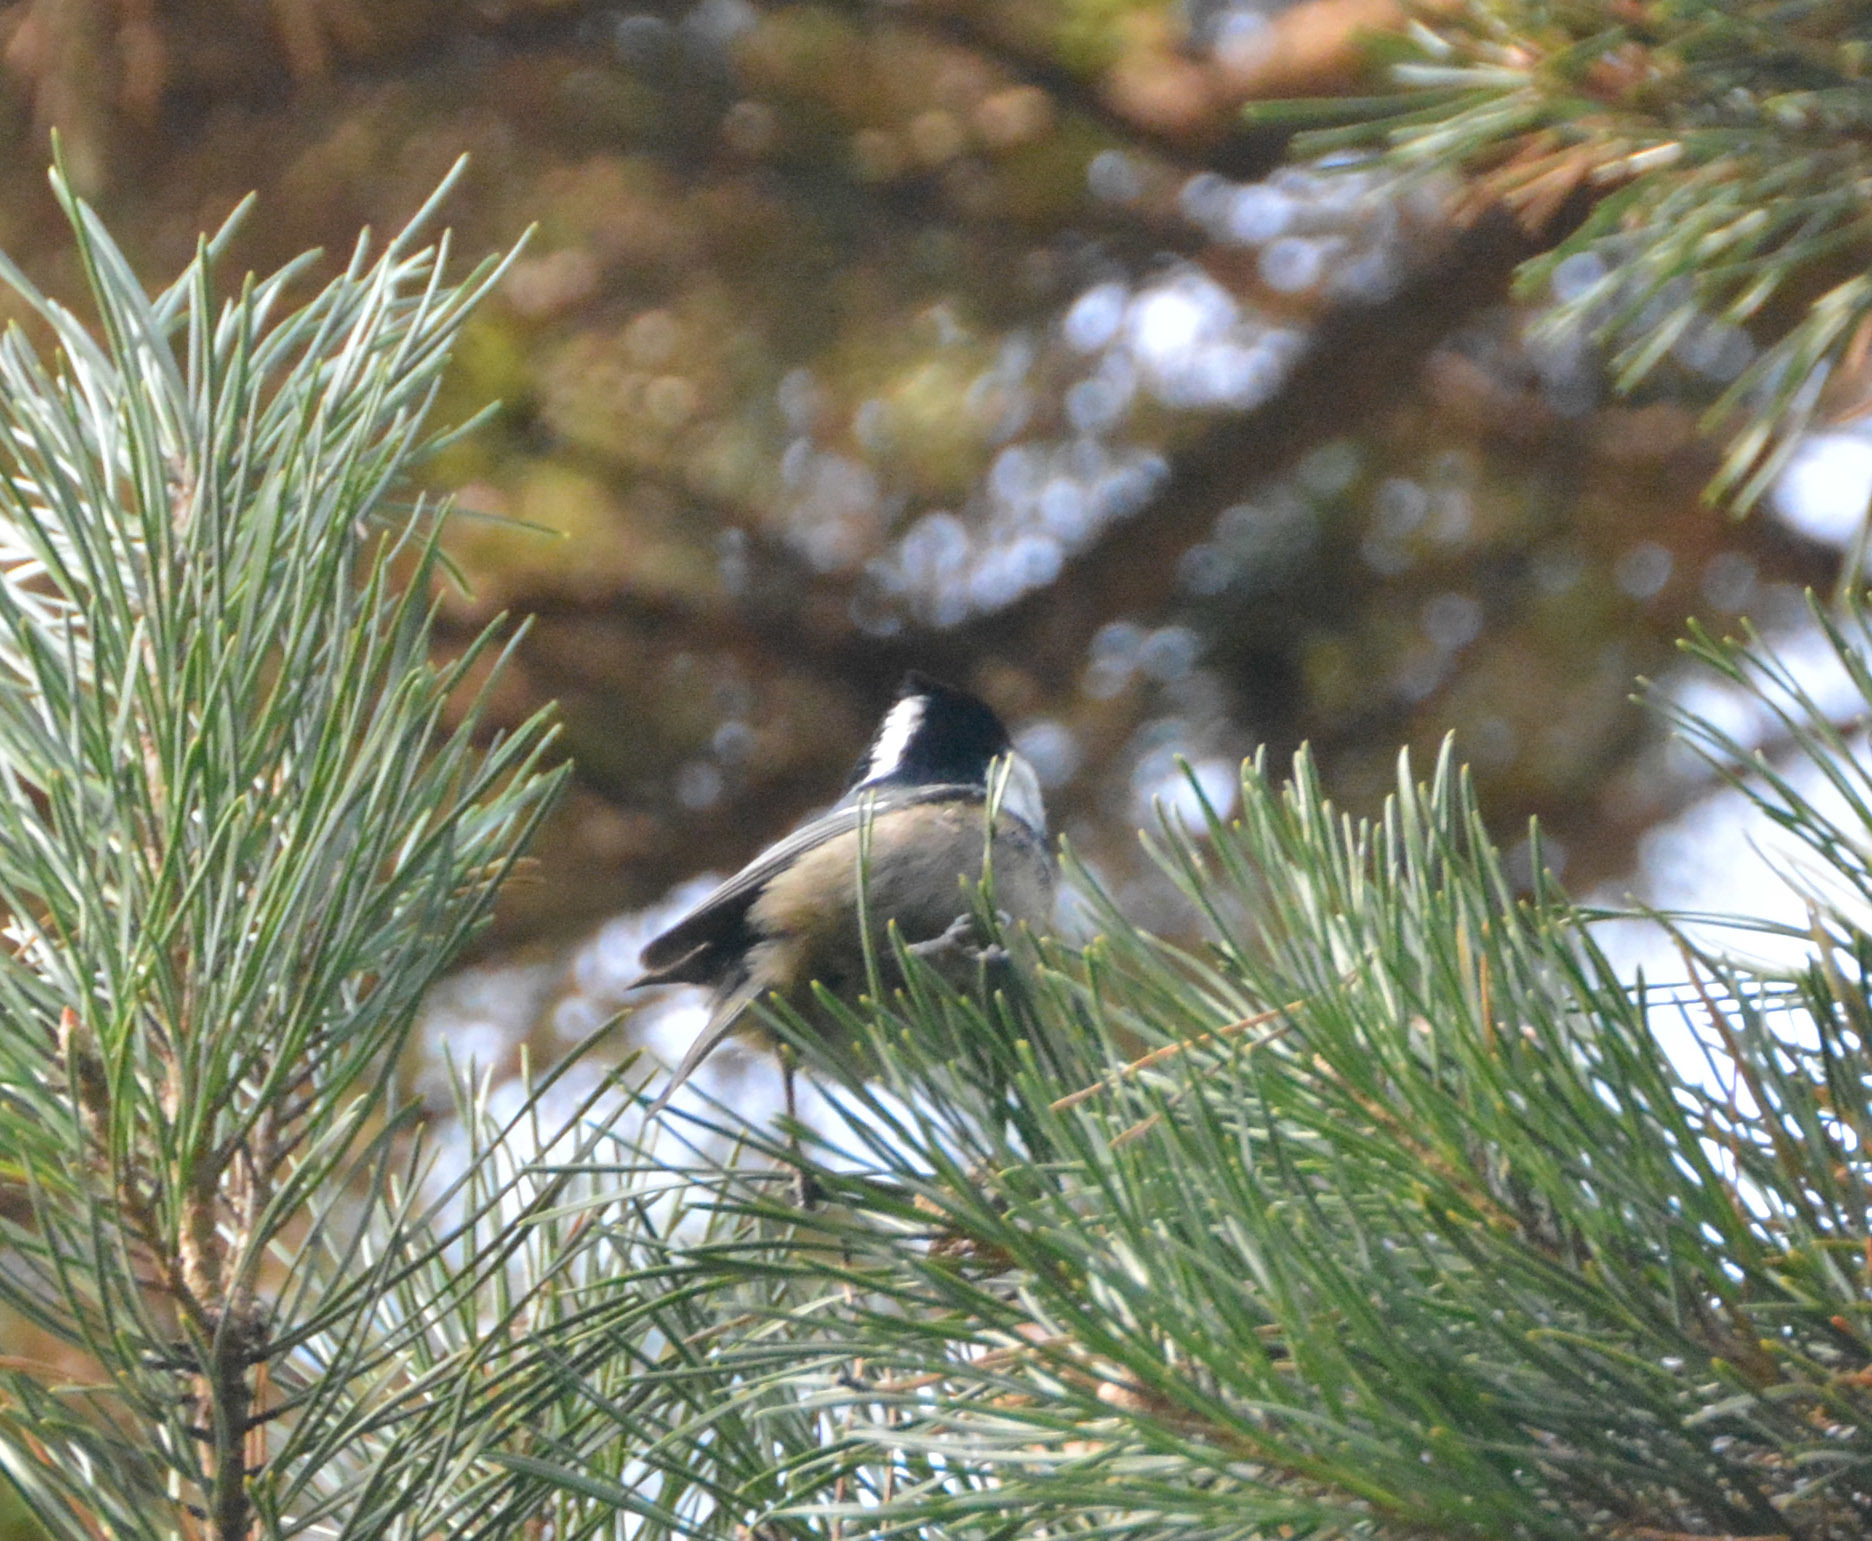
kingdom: Animalia
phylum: Chordata
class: Aves
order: Passeriformes
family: Paridae
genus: Periparus
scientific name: Periparus ater
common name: Coal tit
